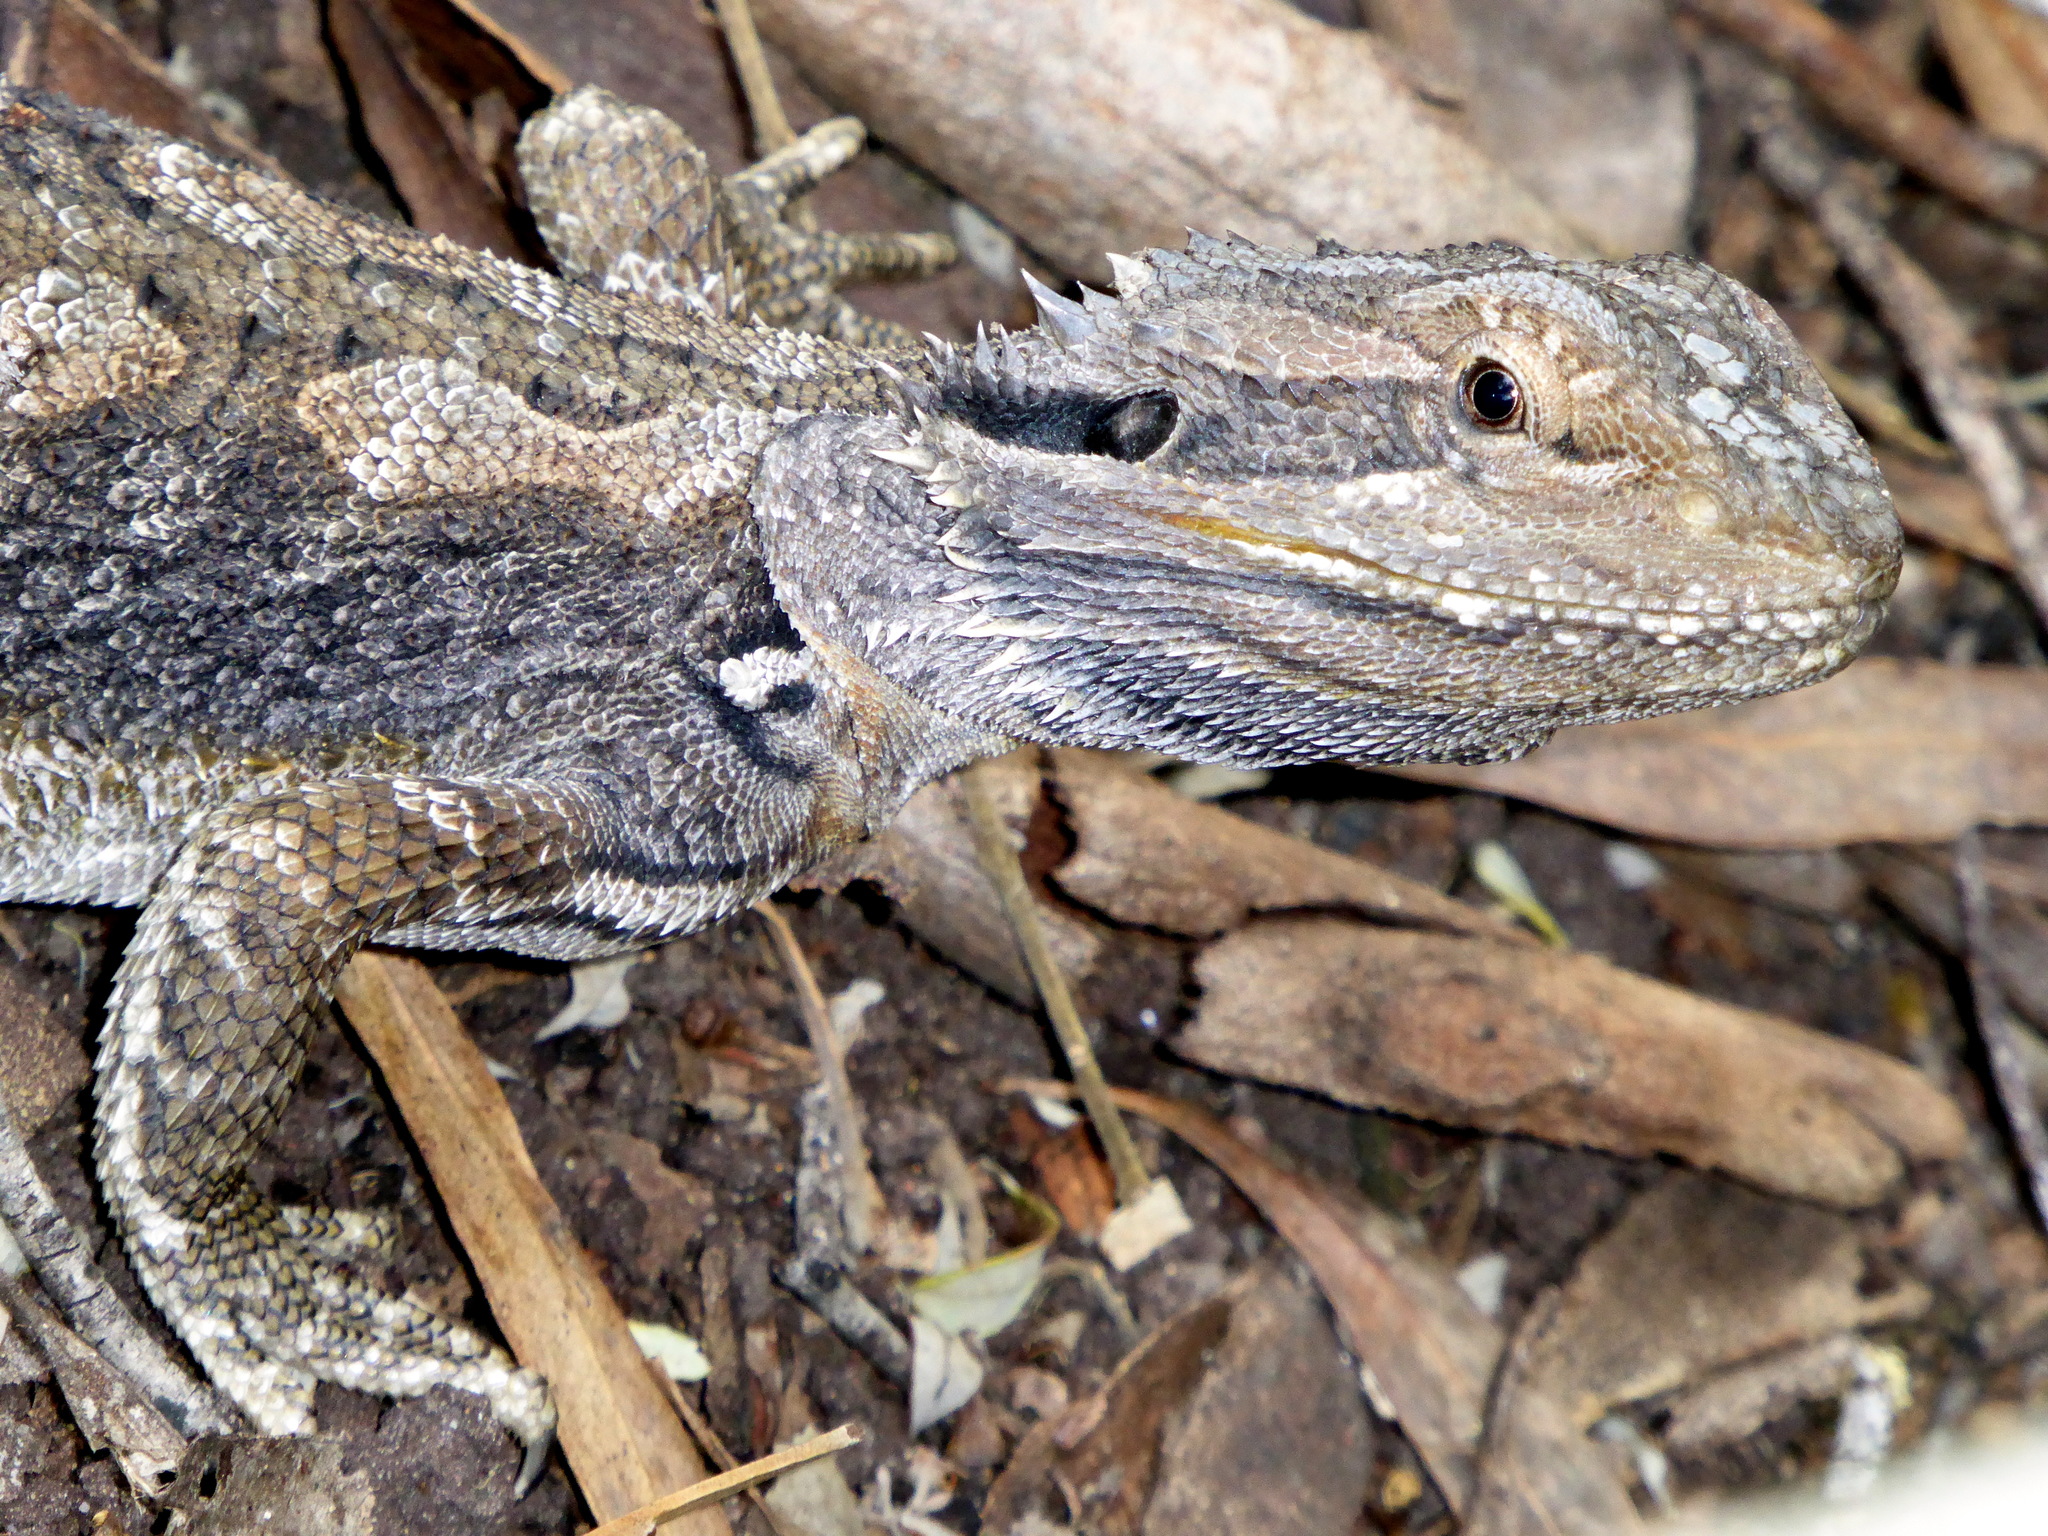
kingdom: Animalia
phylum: Chordata
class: Squamata
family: Agamidae
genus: Pogona
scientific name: Pogona barbata
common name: Bearded dragon
